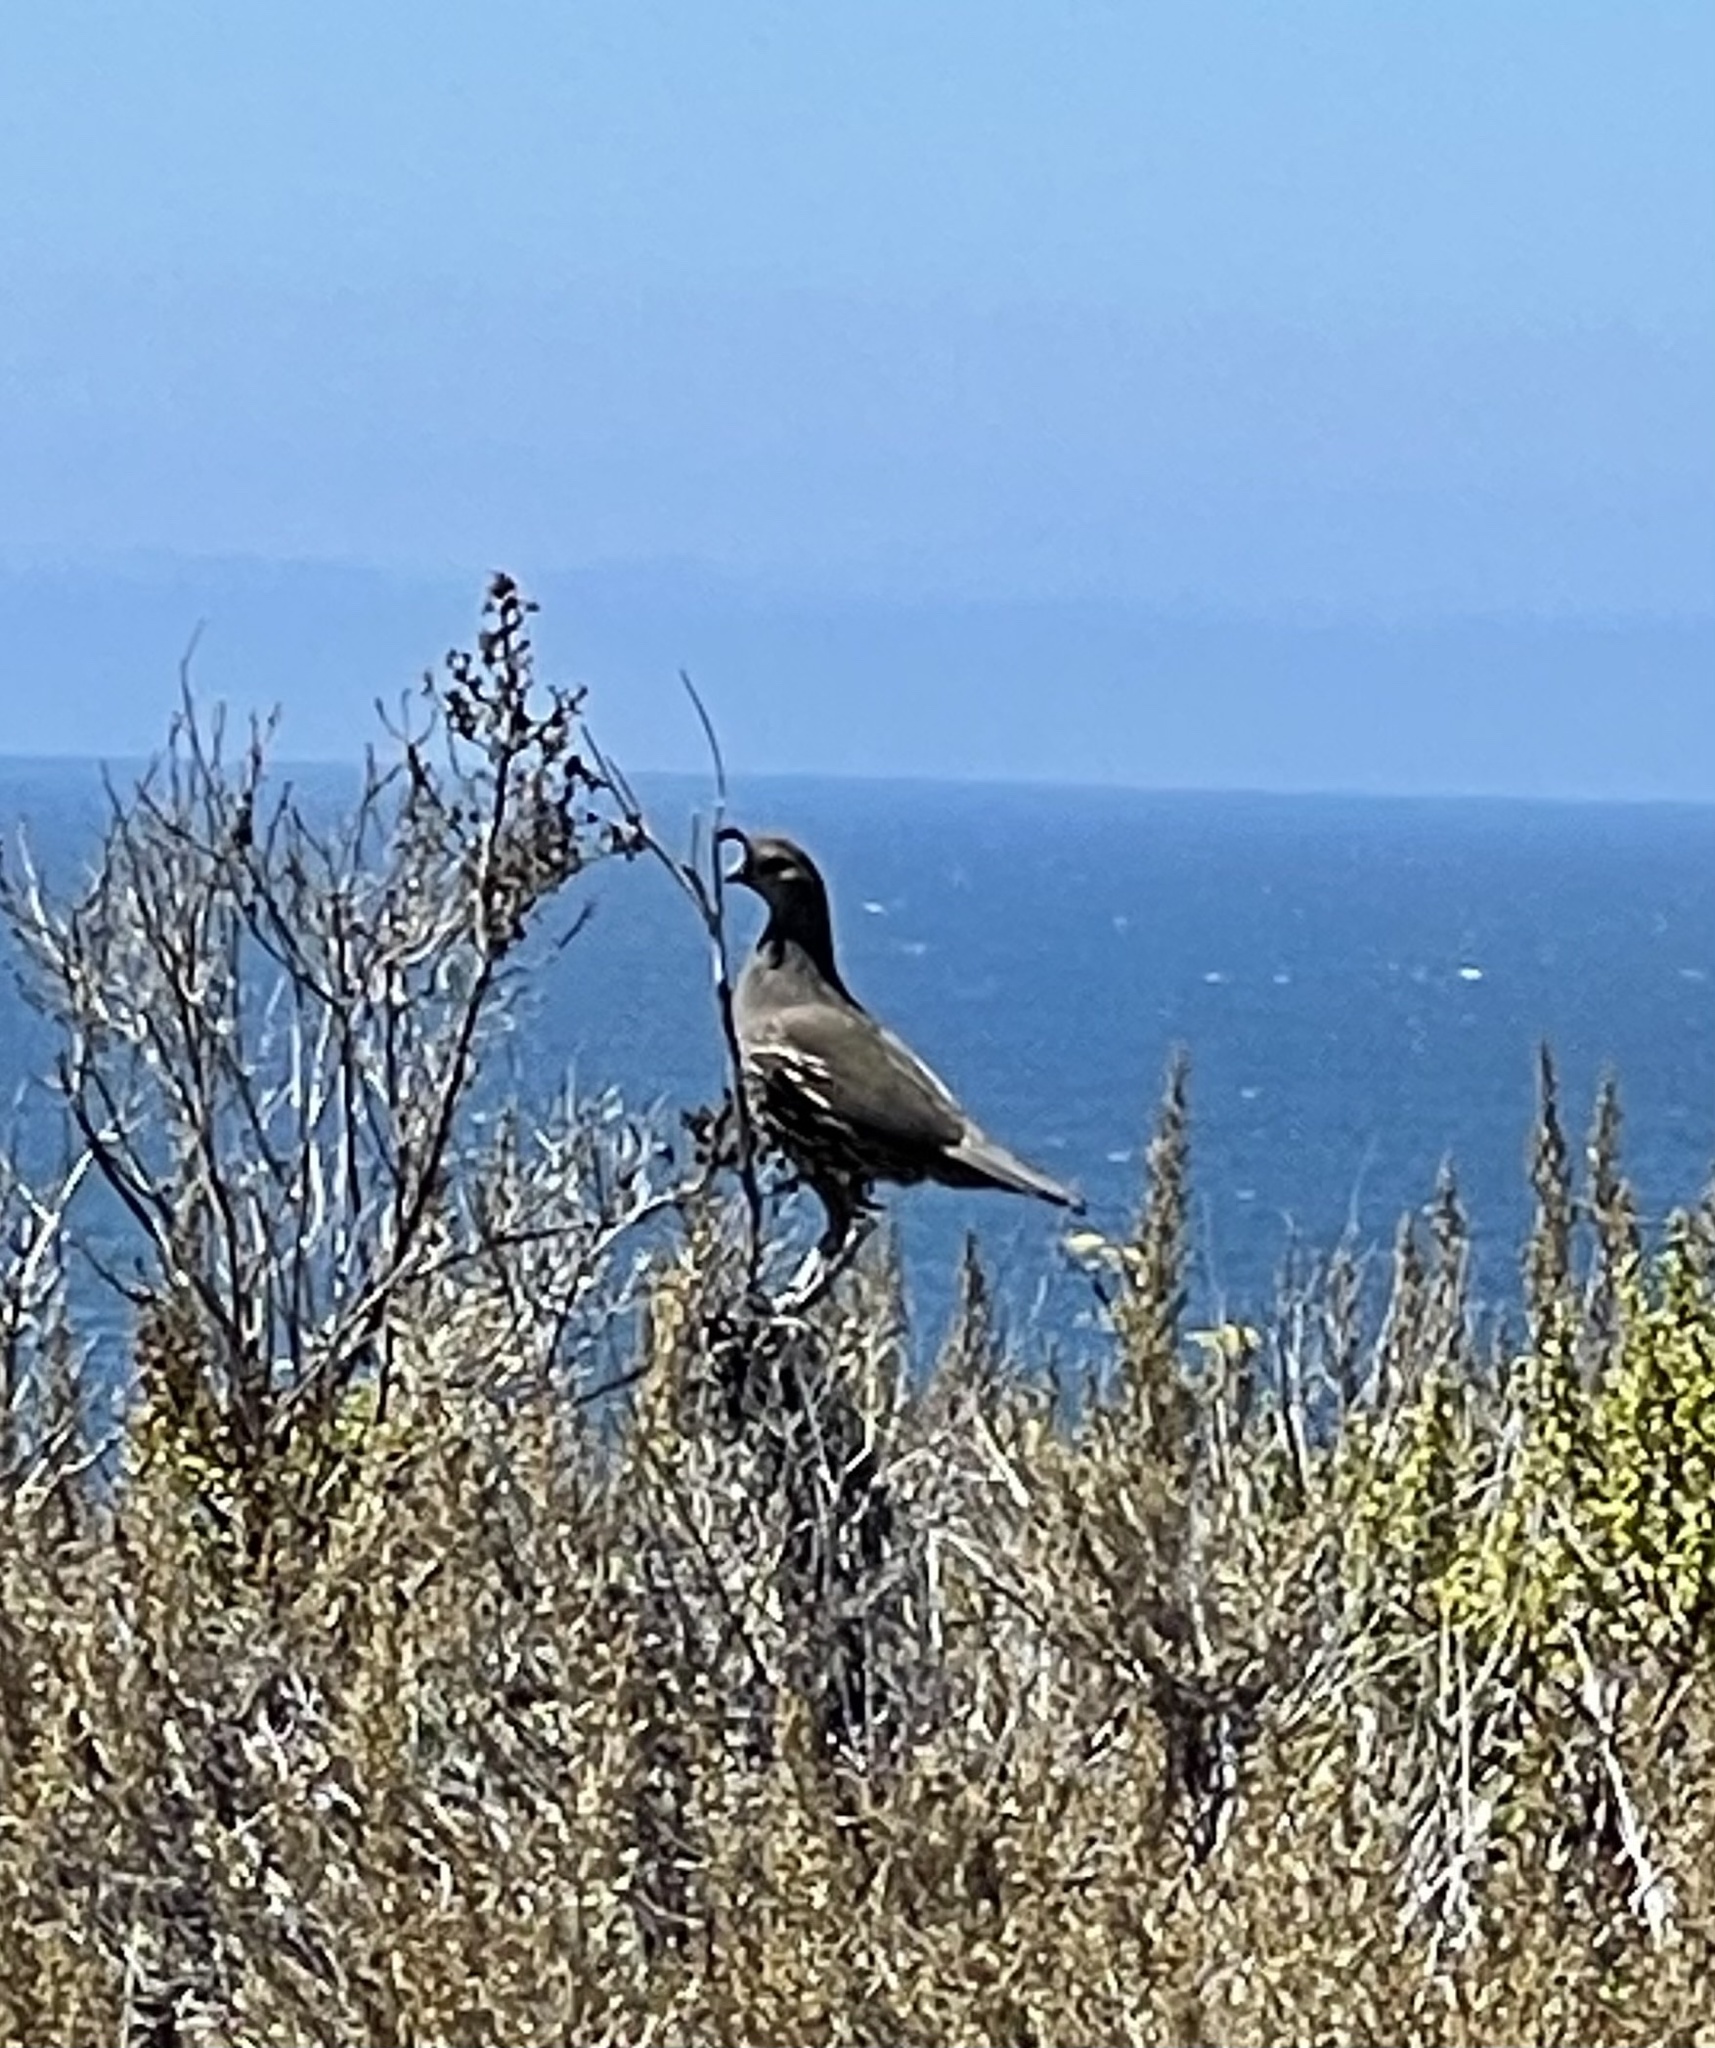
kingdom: Animalia
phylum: Chordata
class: Aves
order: Galliformes
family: Odontophoridae
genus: Callipepla
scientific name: Callipepla californica
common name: California quail
